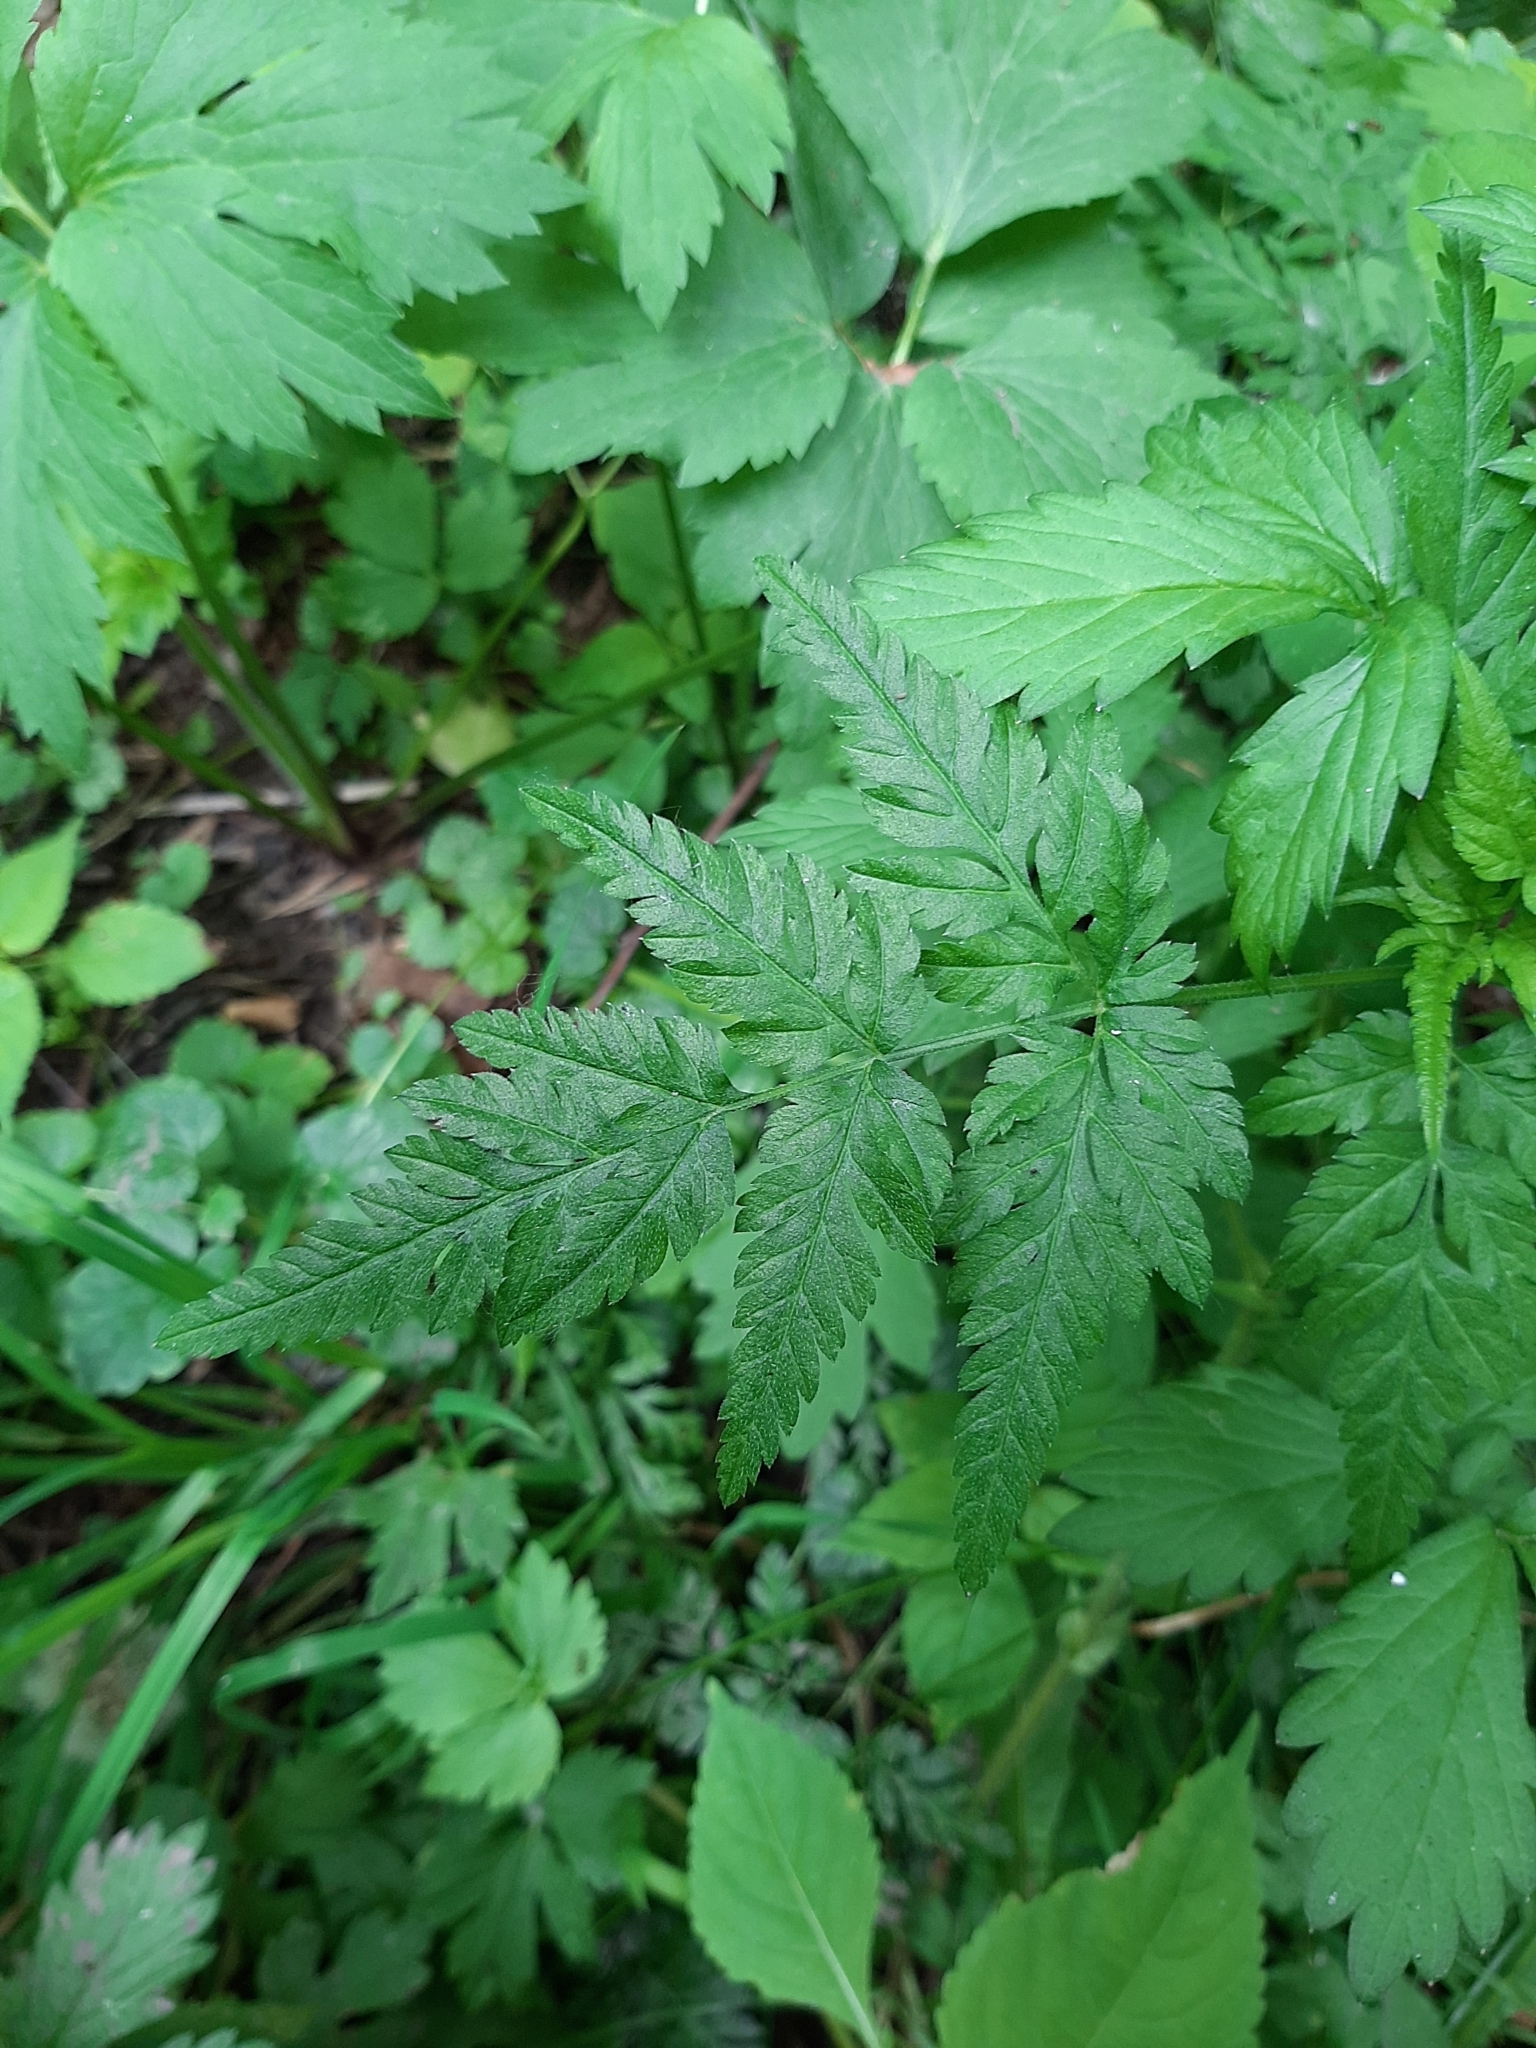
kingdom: Plantae
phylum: Tracheophyta
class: Magnoliopsida
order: Apiales
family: Apiaceae
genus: Torilis
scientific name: Torilis japonica
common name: Upright hedge-parsley
